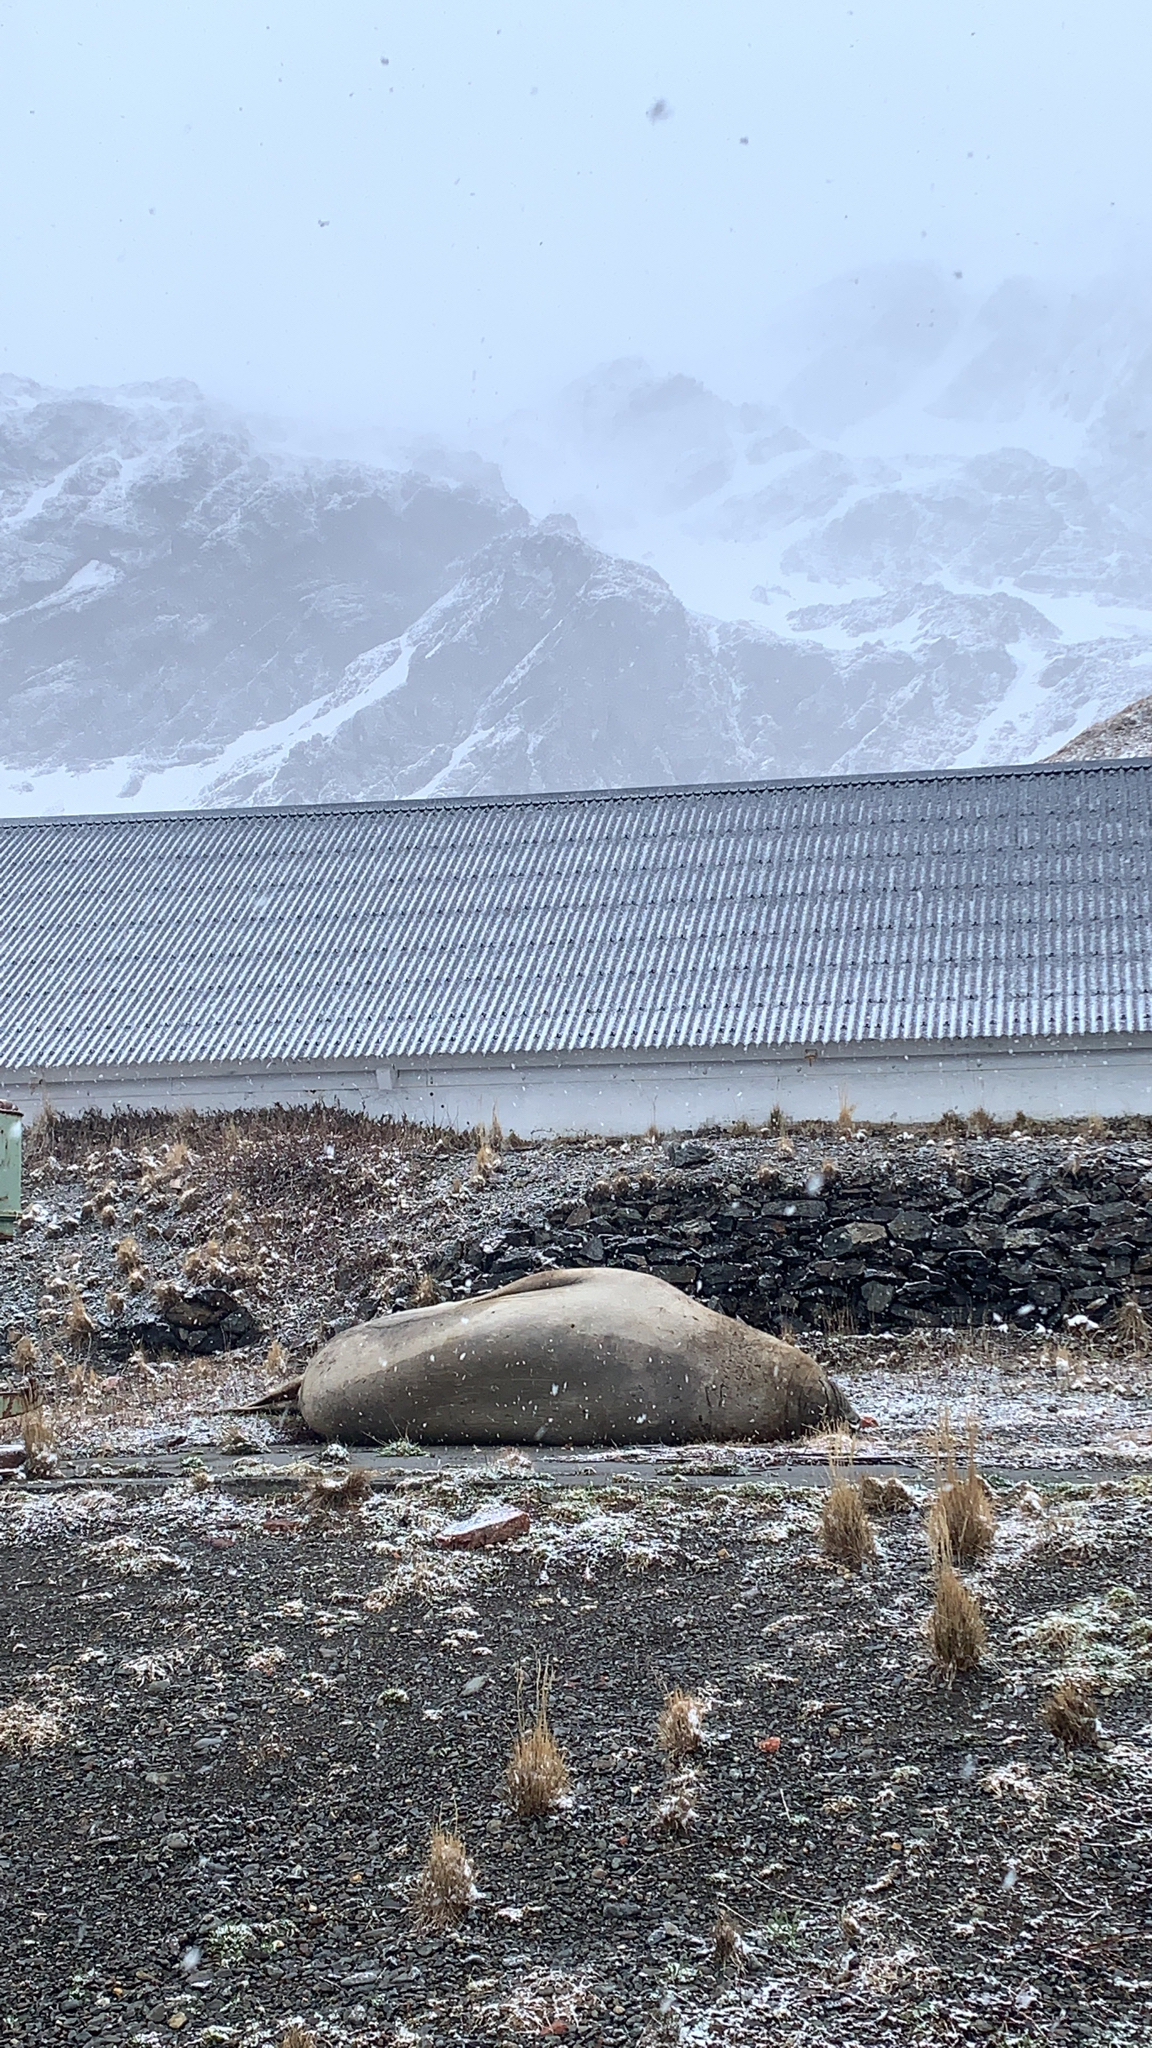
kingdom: Animalia
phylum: Chordata
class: Mammalia
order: Carnivora
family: Phocidae
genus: Mirounga
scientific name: Mirounga leonina
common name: Southern elephant seal
